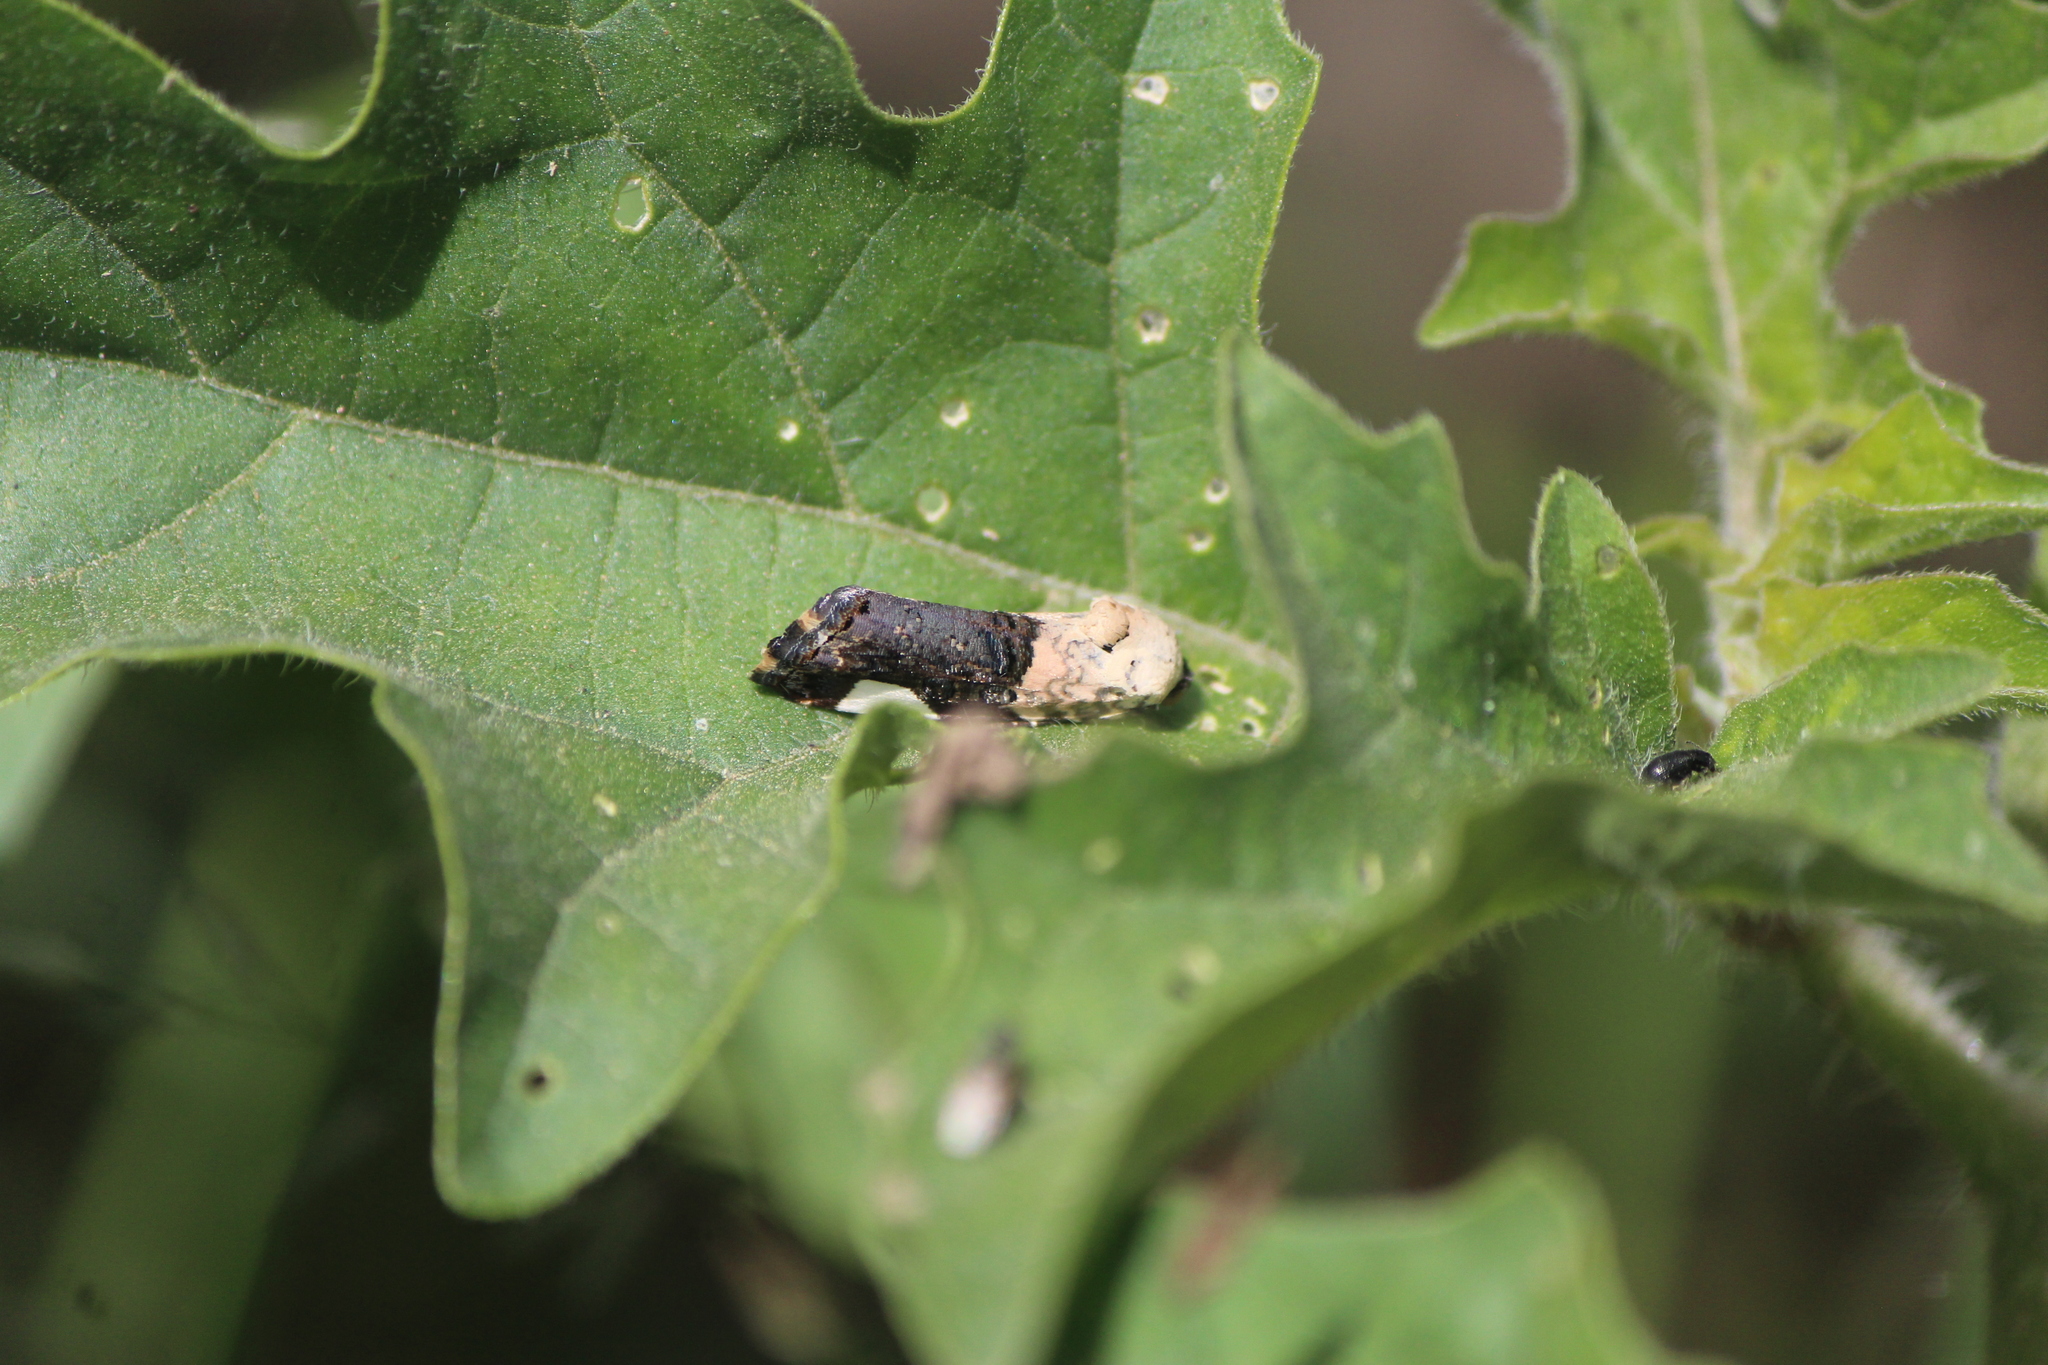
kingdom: Animalia
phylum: Arthropoda
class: Insecta
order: Lepidoptera
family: Noctuidae
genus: Acontia
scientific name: Acontia areli
